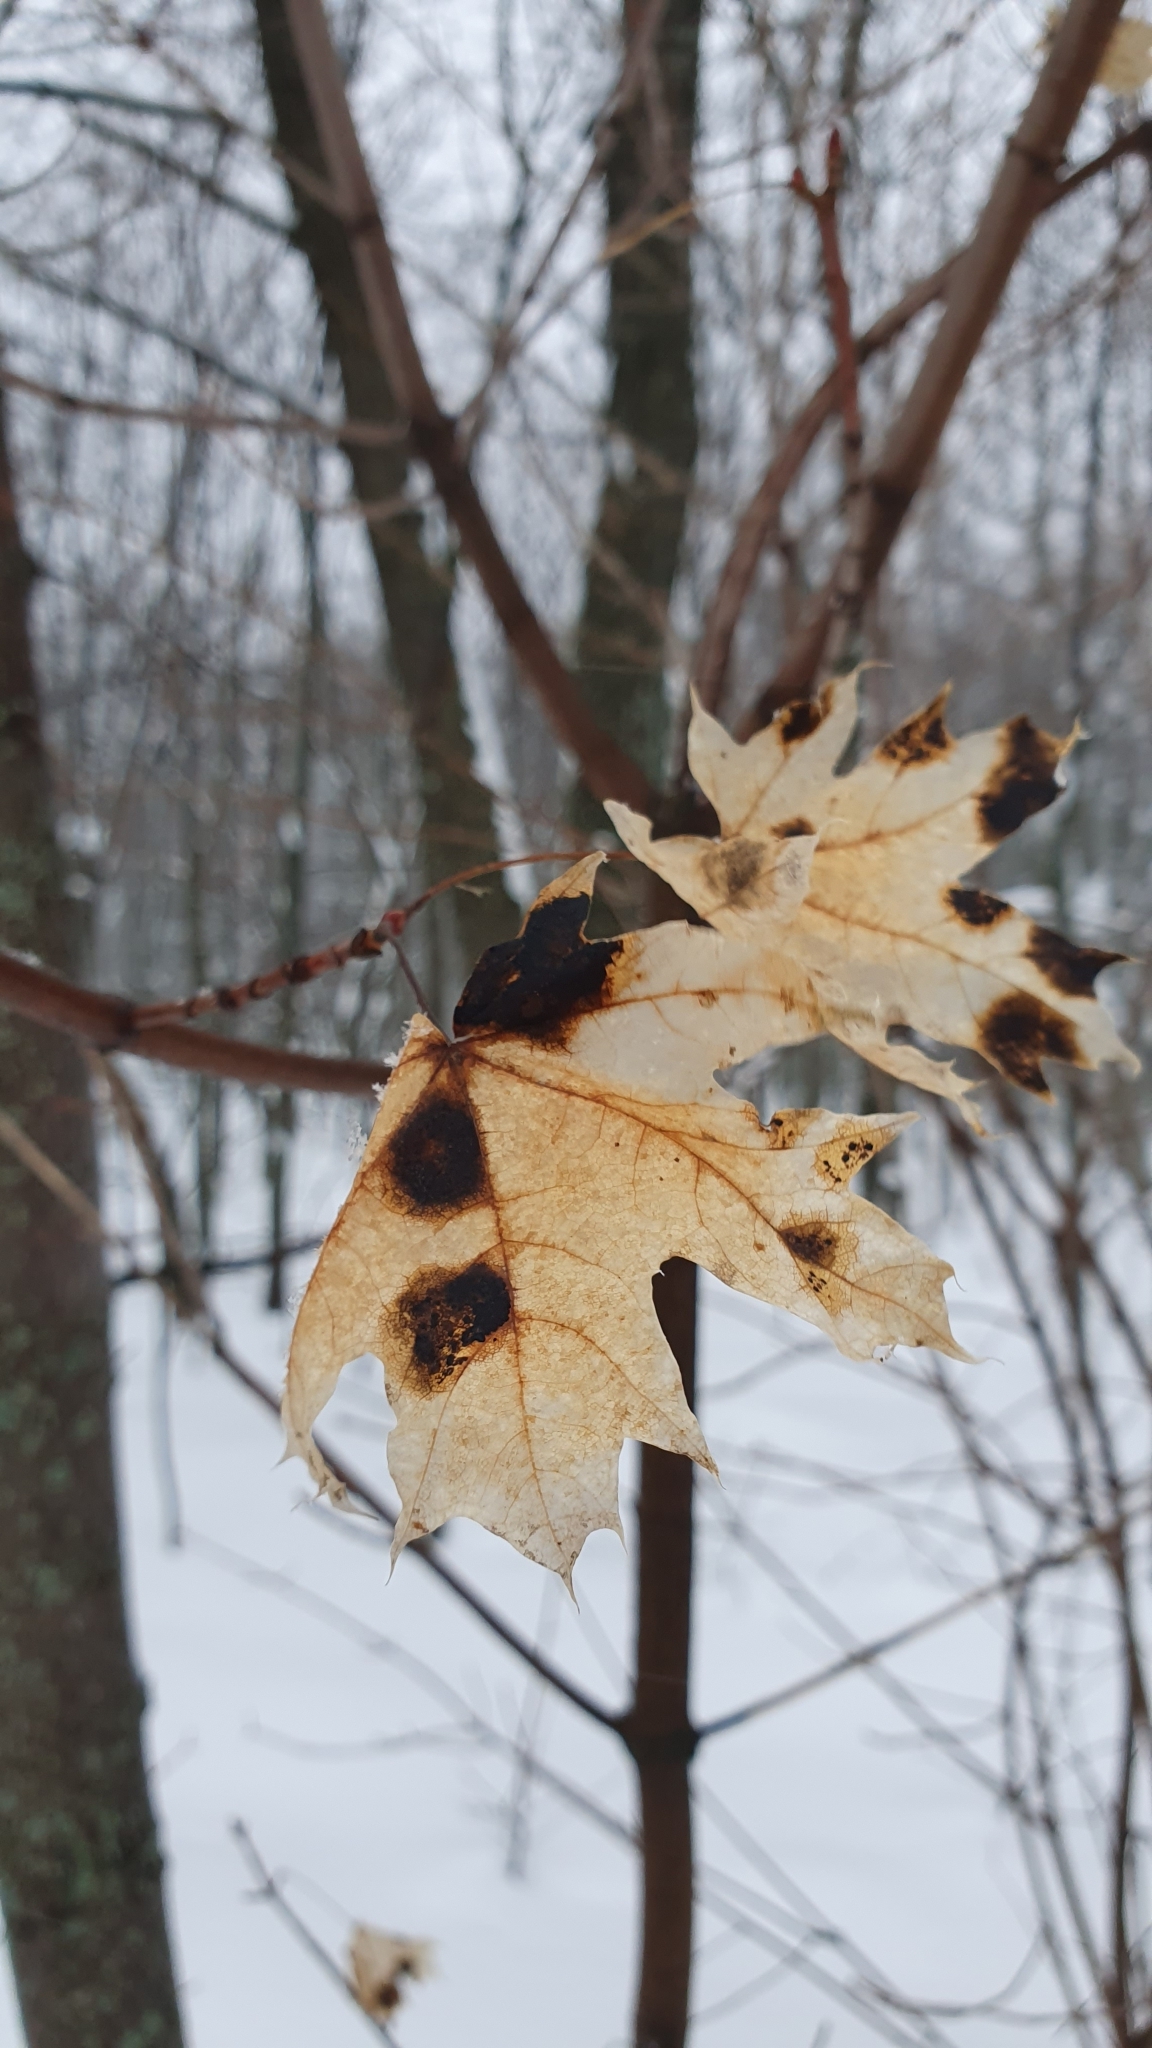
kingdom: Plantae
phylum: Tracheophyta
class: Magnoliopsida
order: Sapindales
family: Sapindaceae
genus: Acer
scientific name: Acer platanoides
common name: Norway maple
